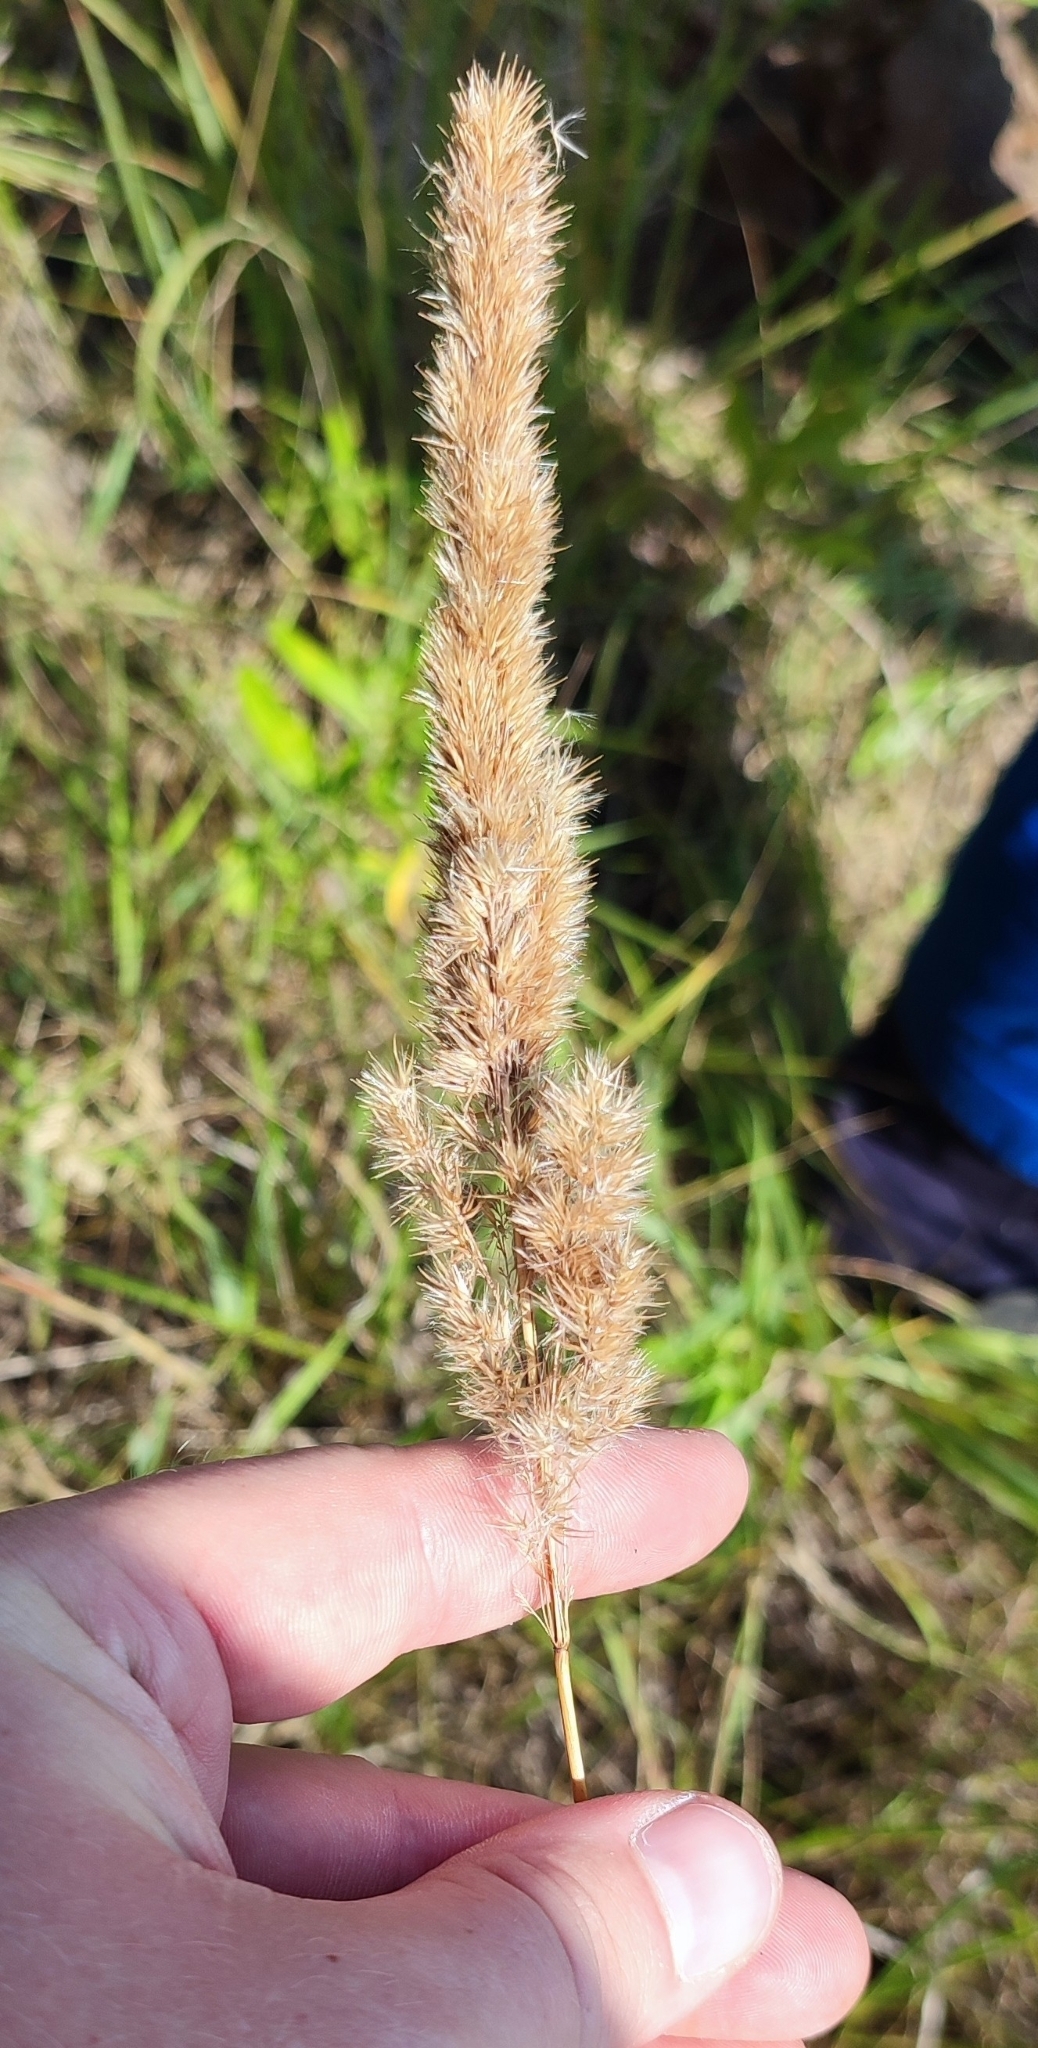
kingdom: Plantae
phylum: Tracheophyta
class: Liliopsida
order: Poales
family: Poaceae
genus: Calamagrostis
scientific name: Calamagrostis epigejos
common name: Wood small-reed
